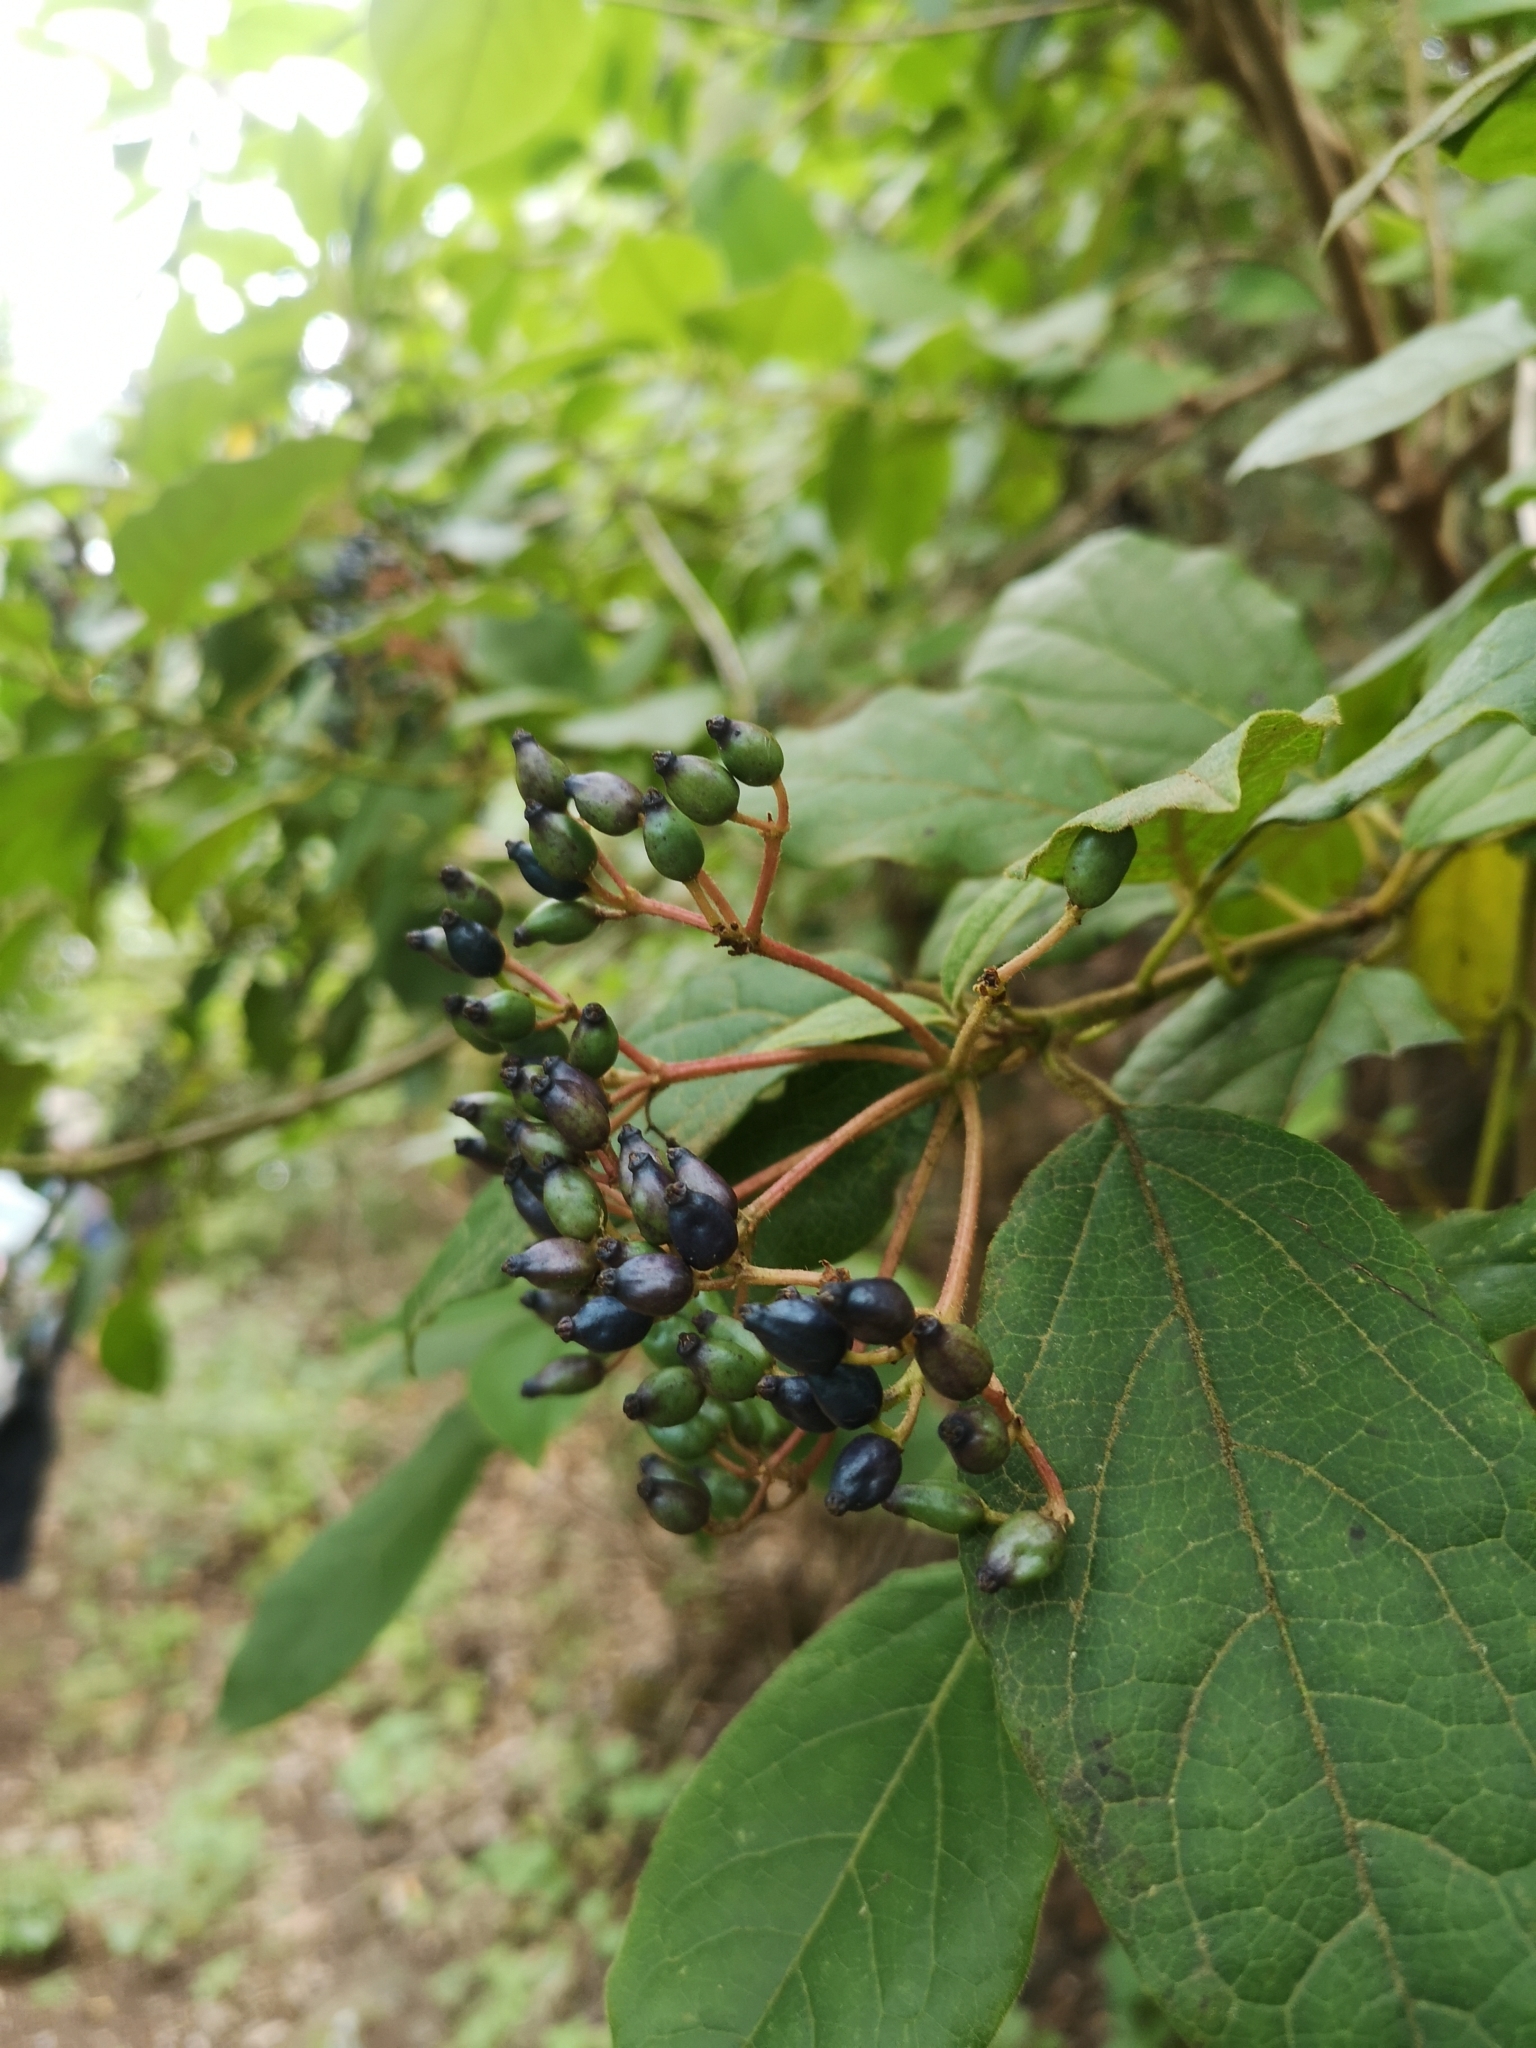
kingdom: Plantae
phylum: Tracheophyta
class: Magnoliopsida
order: Dipsacales
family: Viburnaceae
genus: Viburnum
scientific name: Viburnum rugosum
